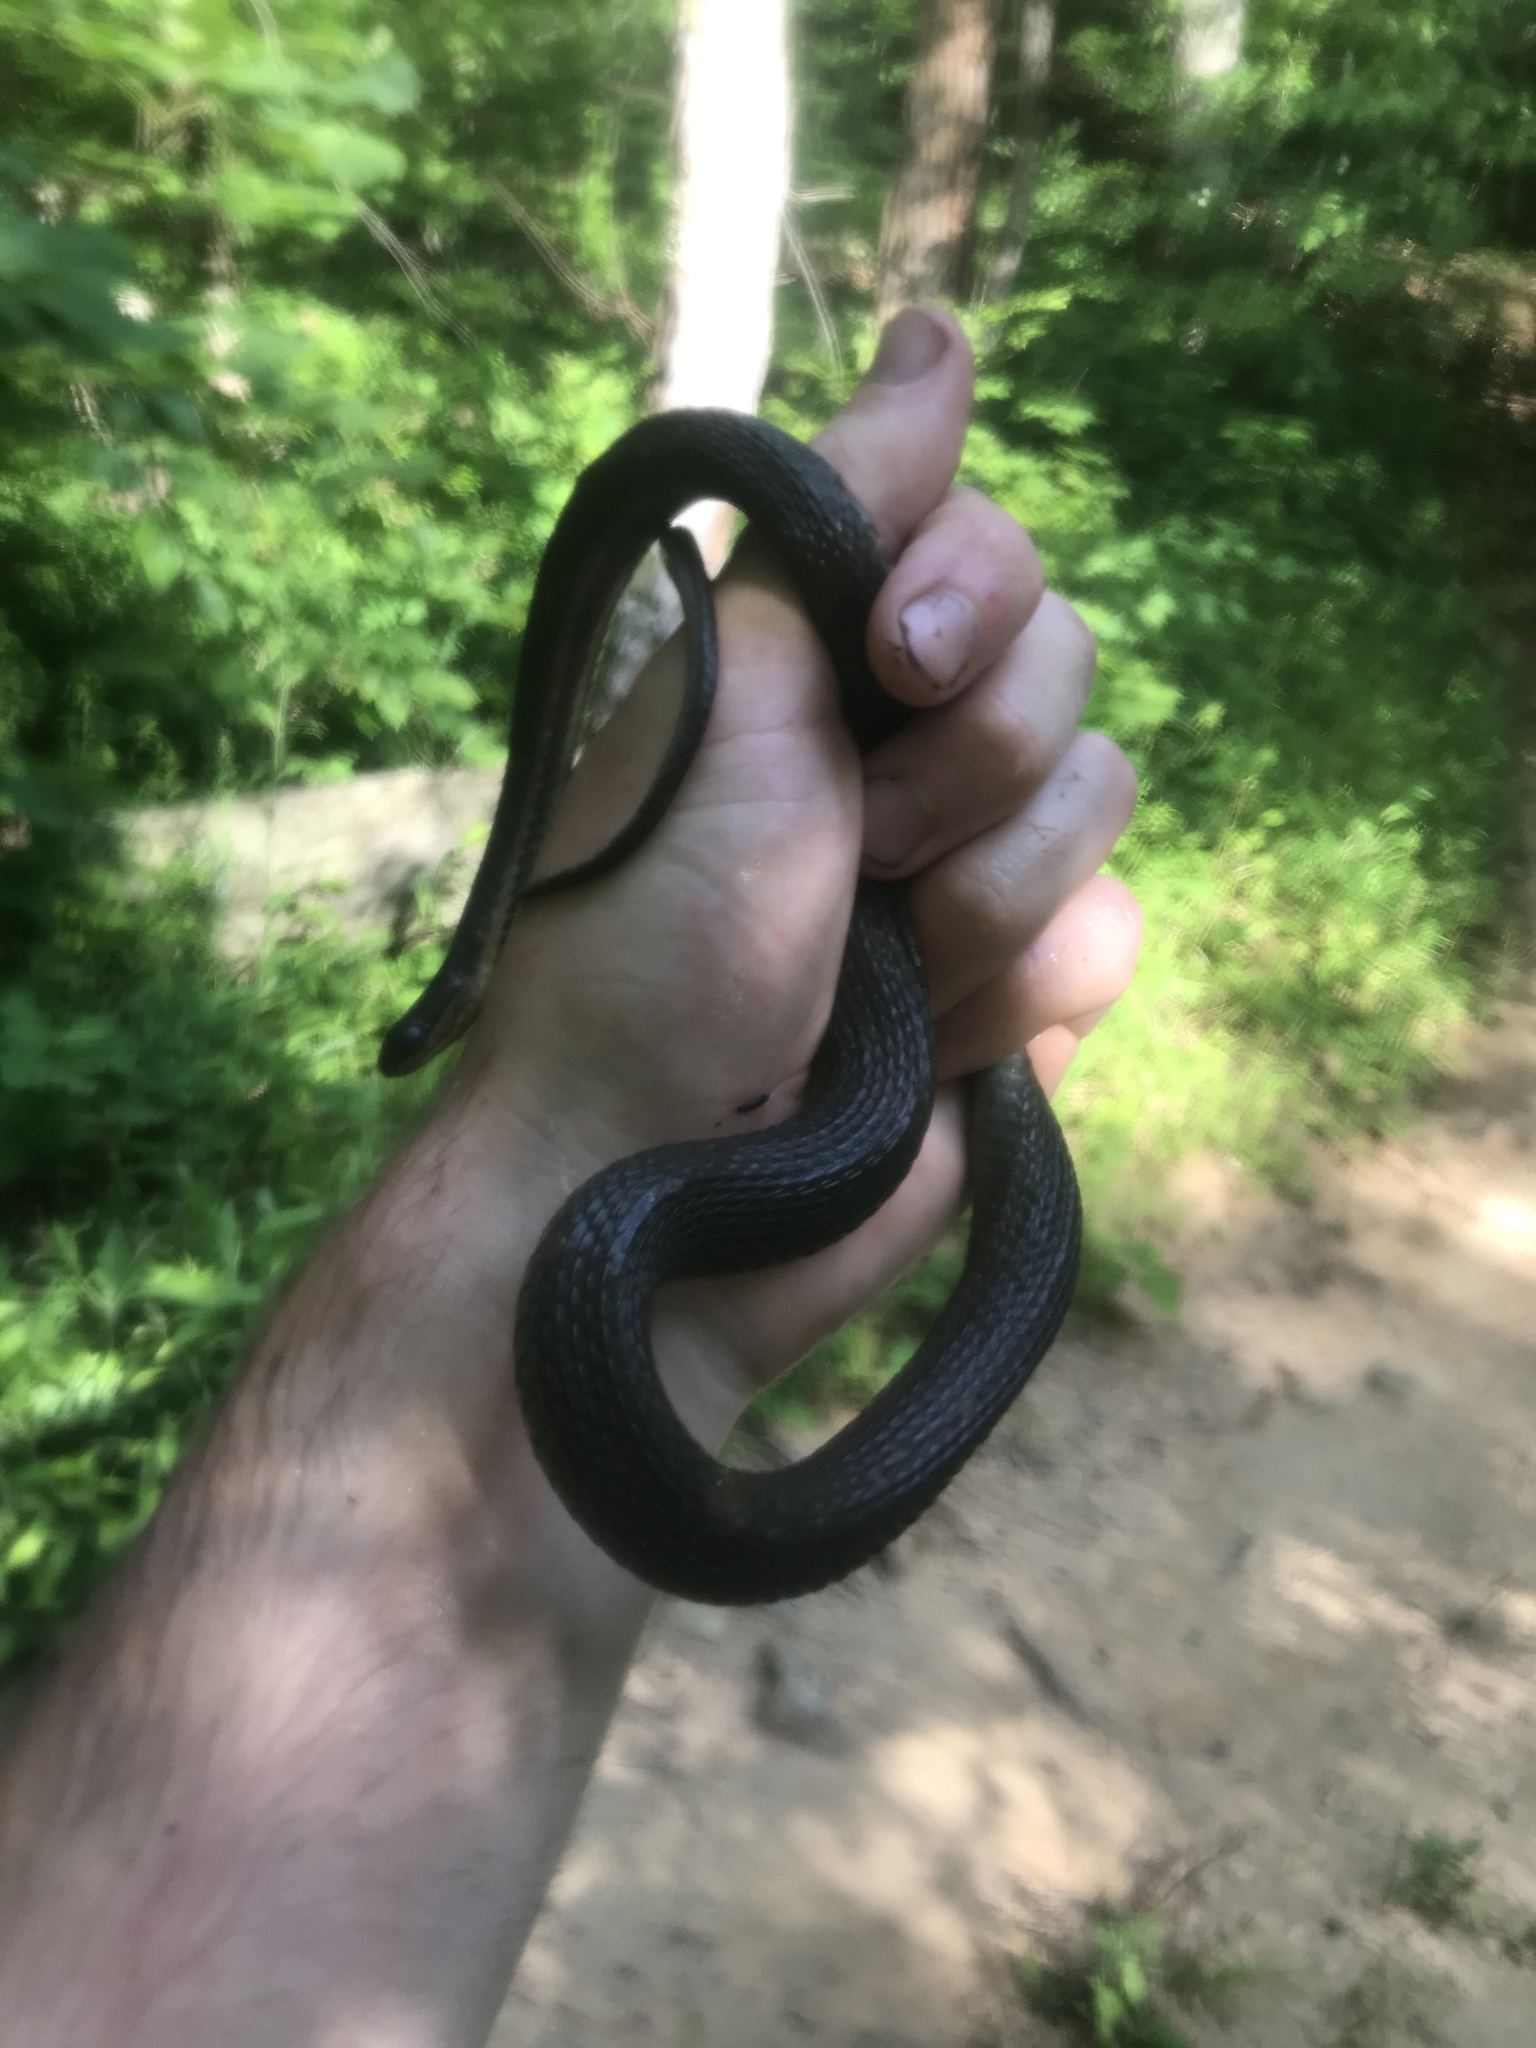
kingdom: Animalia
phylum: Chordata
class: Squamata
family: Colubridae
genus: Regina
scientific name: Regina septemvittata
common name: Queen snake
